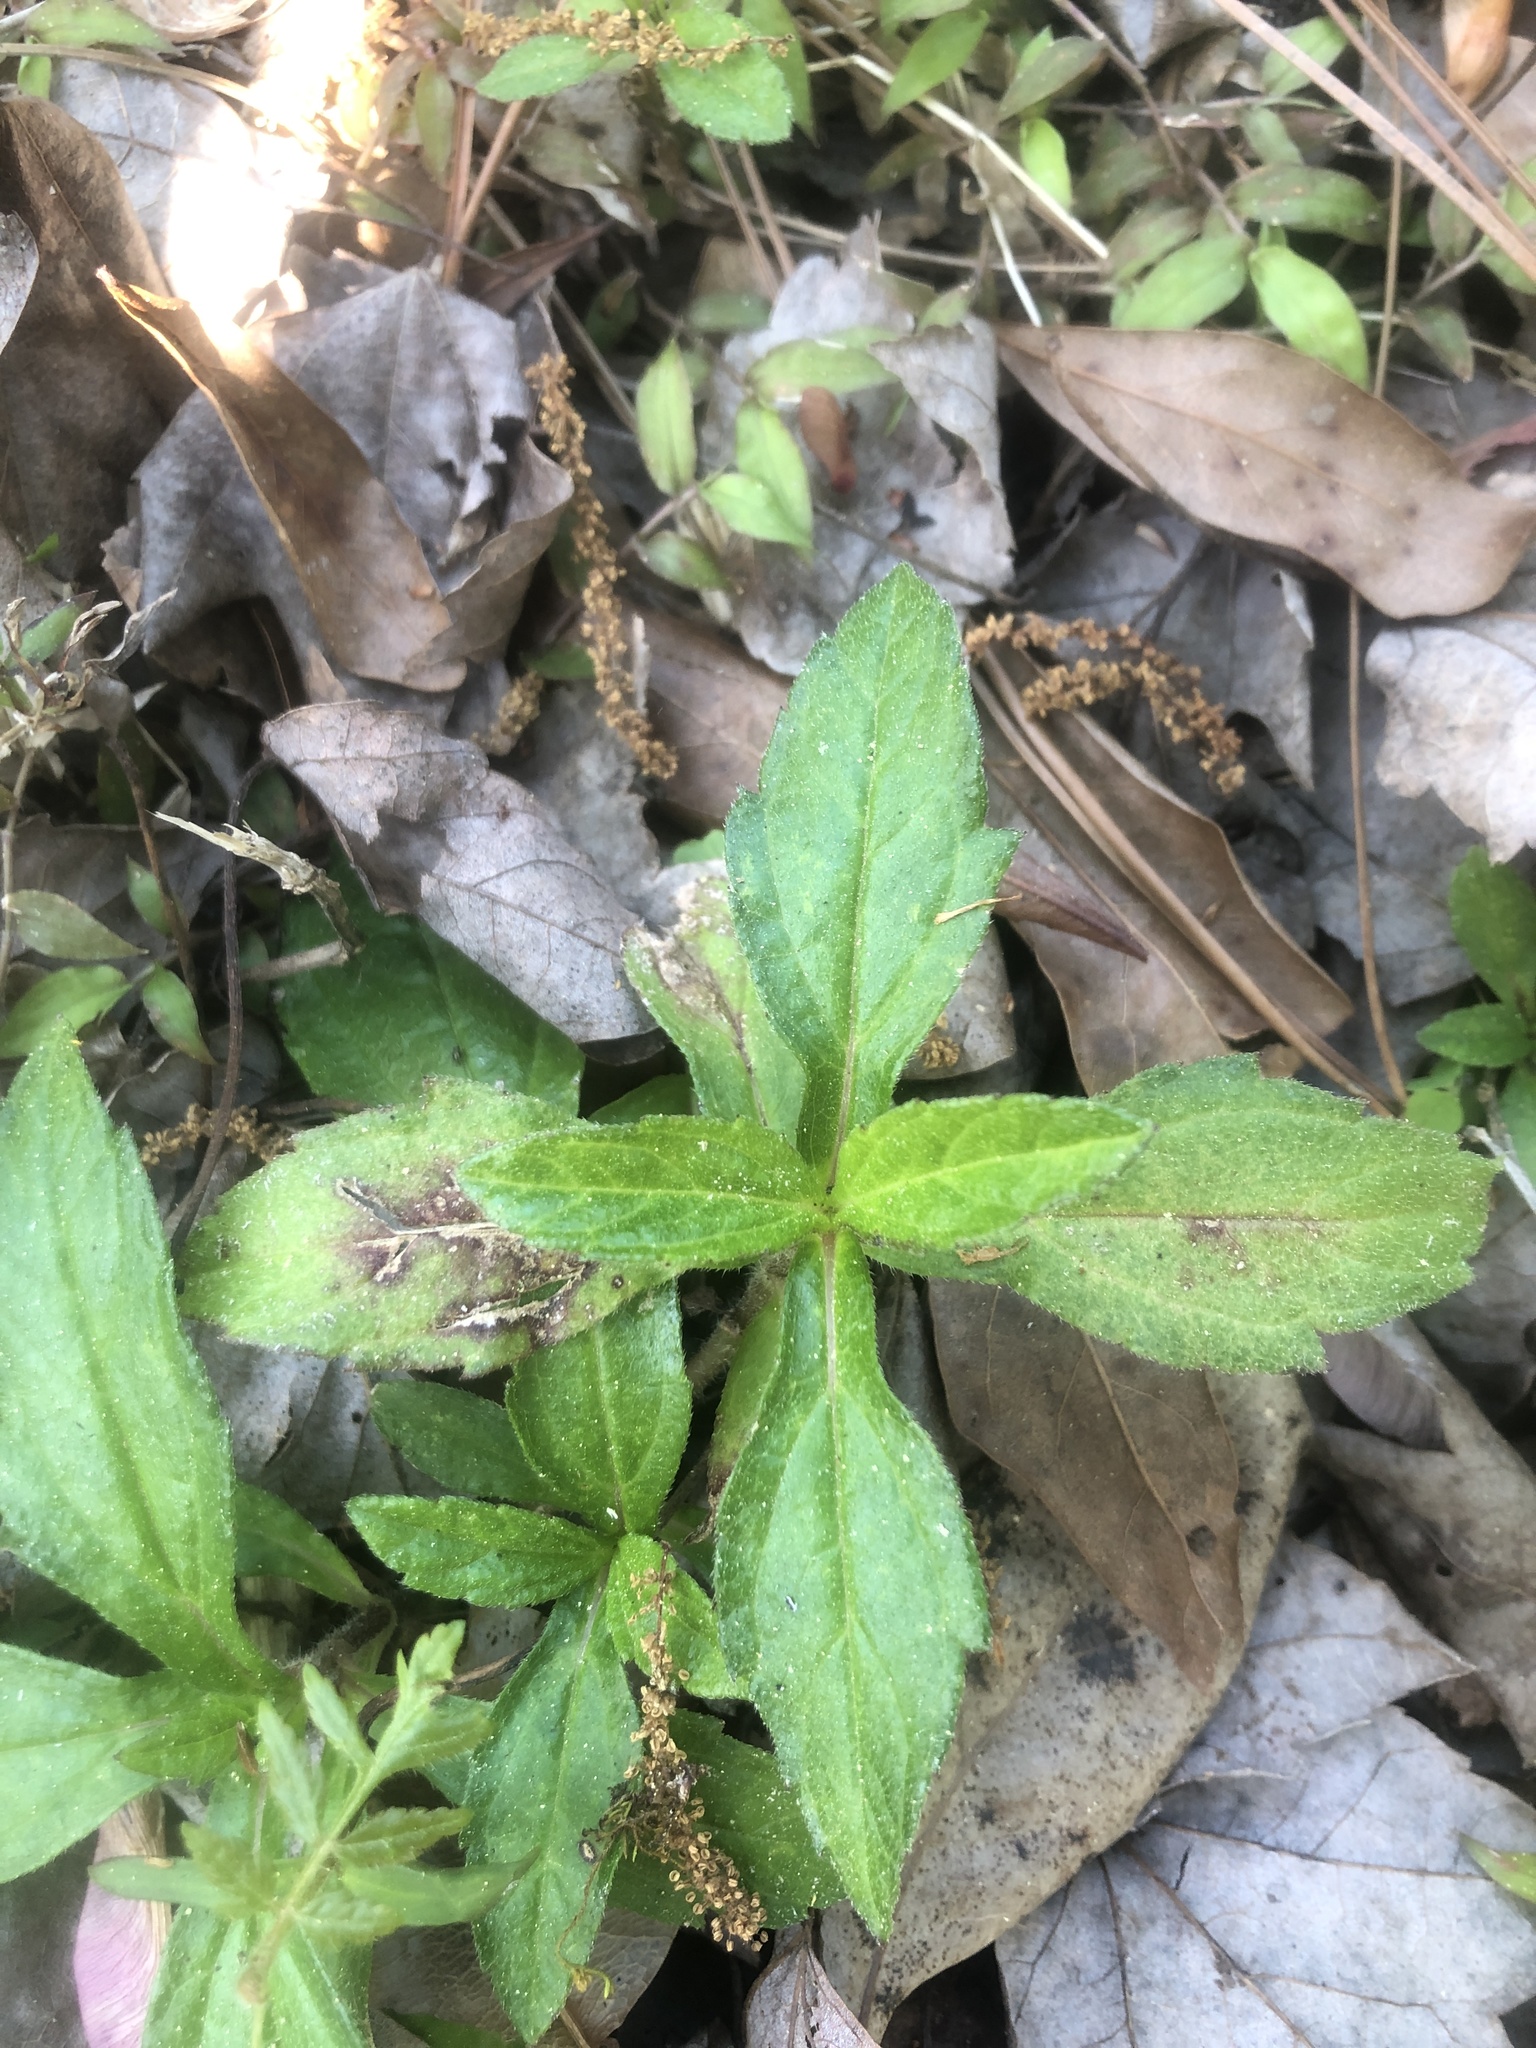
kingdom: Plantae
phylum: Tracheophyta
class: Magnoliopsida
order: Asterales
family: Asteraceae
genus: Sphagneticola
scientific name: Sphagneticola trilobata
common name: Bay biscayne creeping-oxeye
